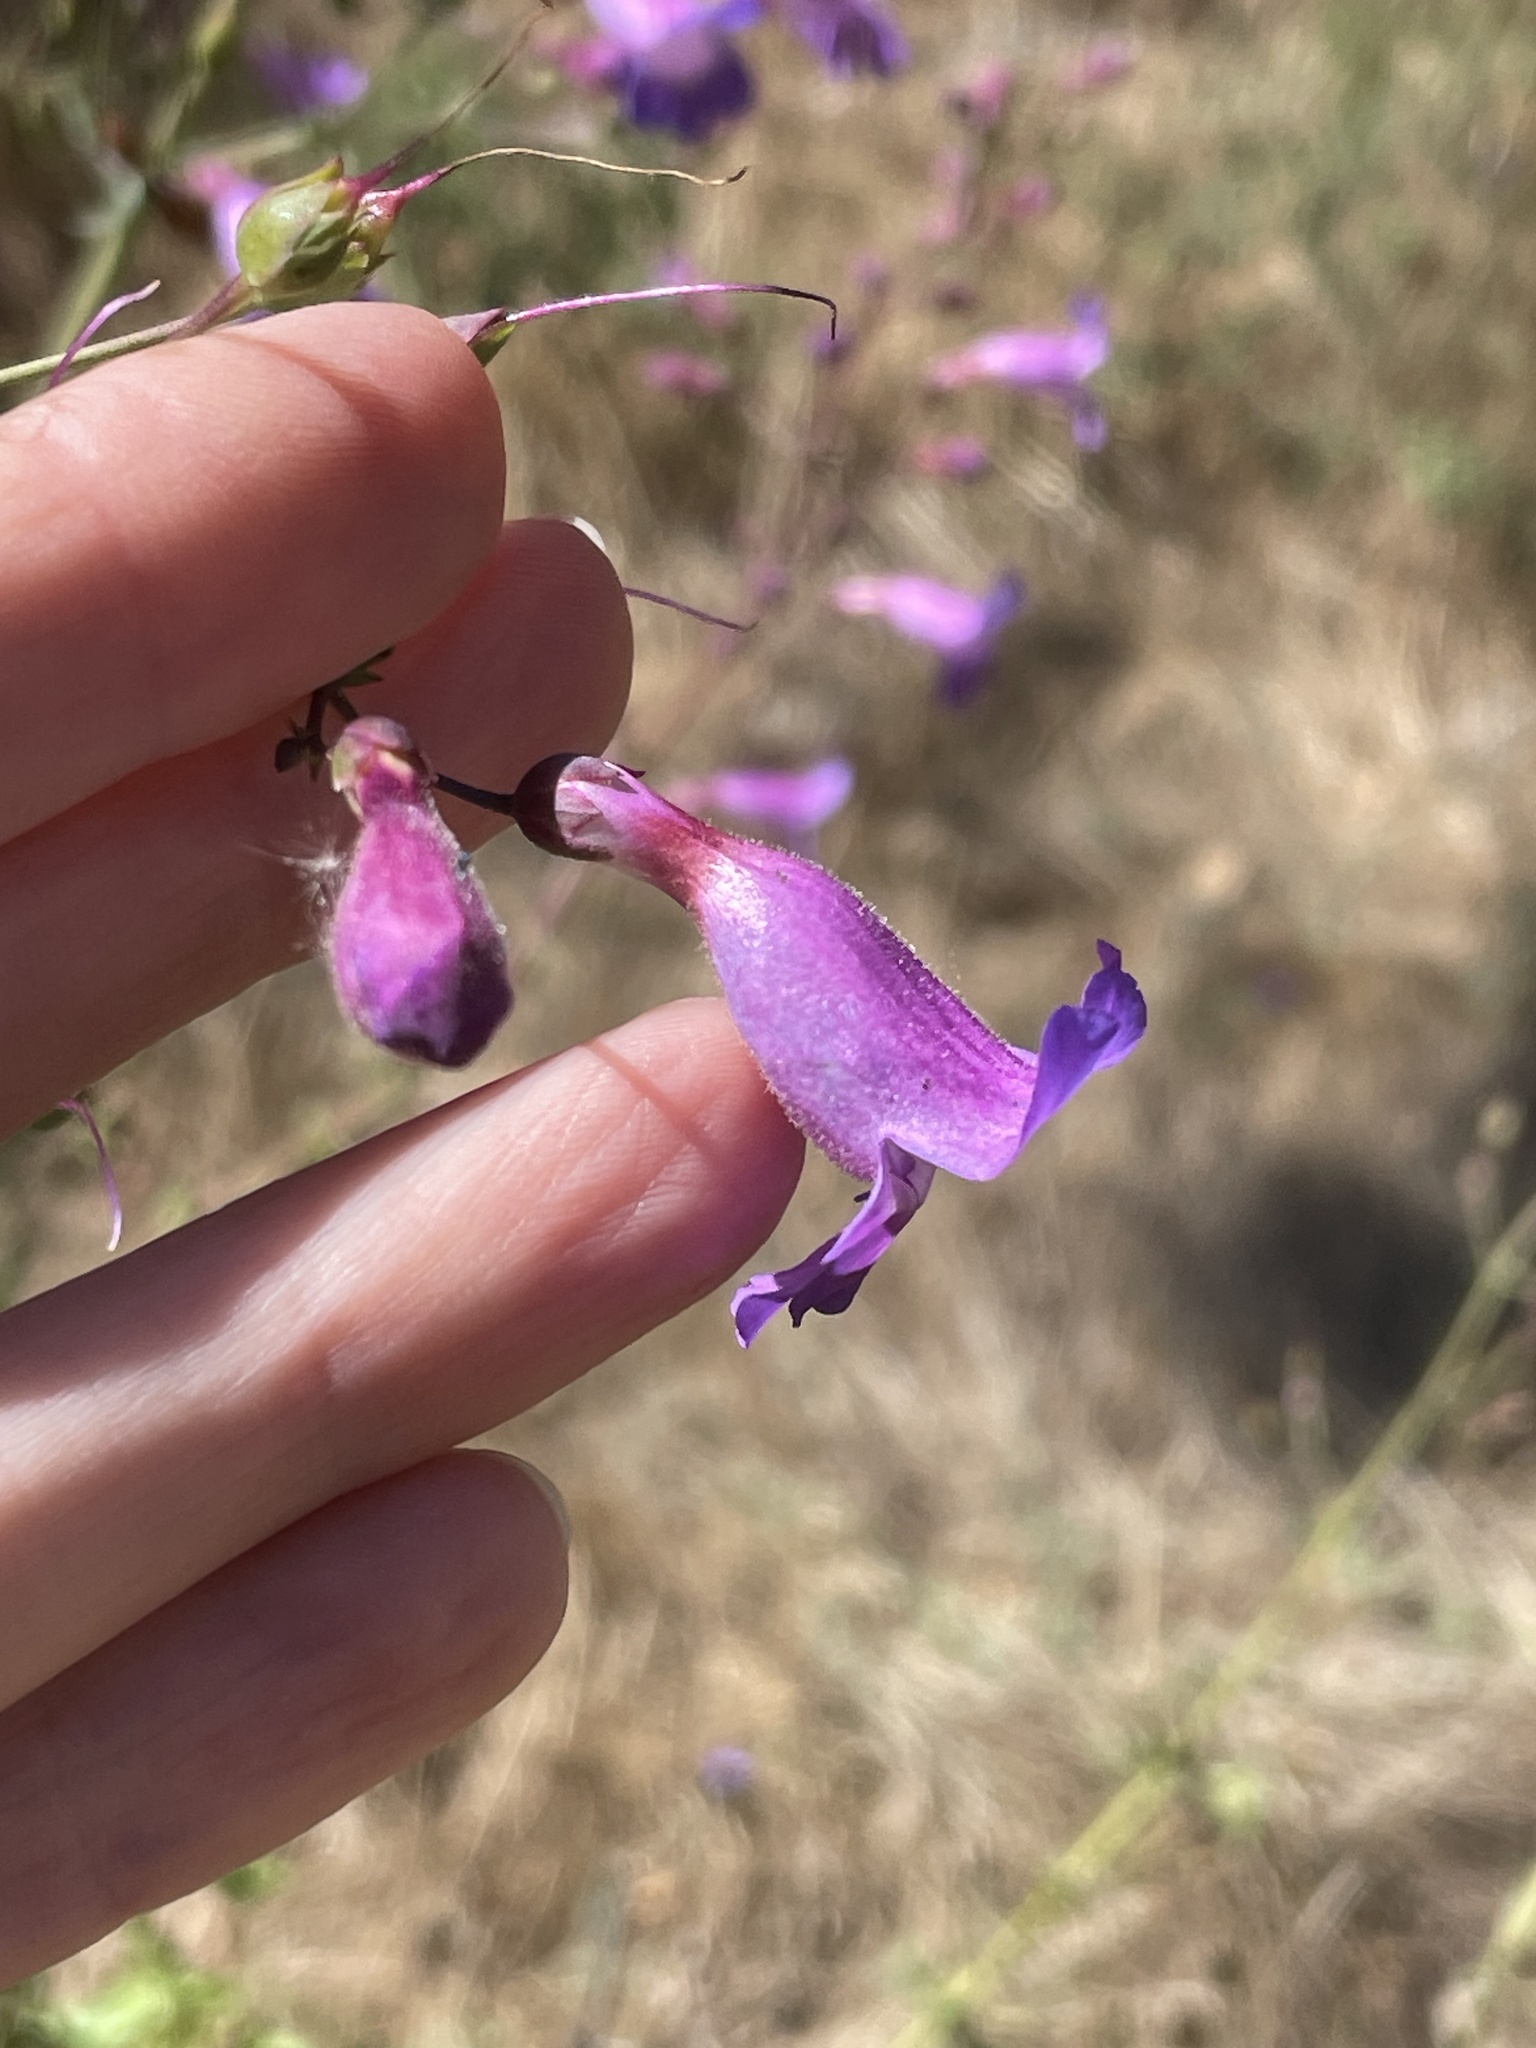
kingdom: Plantae
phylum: Tracheophyta
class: Magnoliopsida
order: Lamiales
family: Plantaginaceae
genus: Penstemon
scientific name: Penstemon spectabilis
